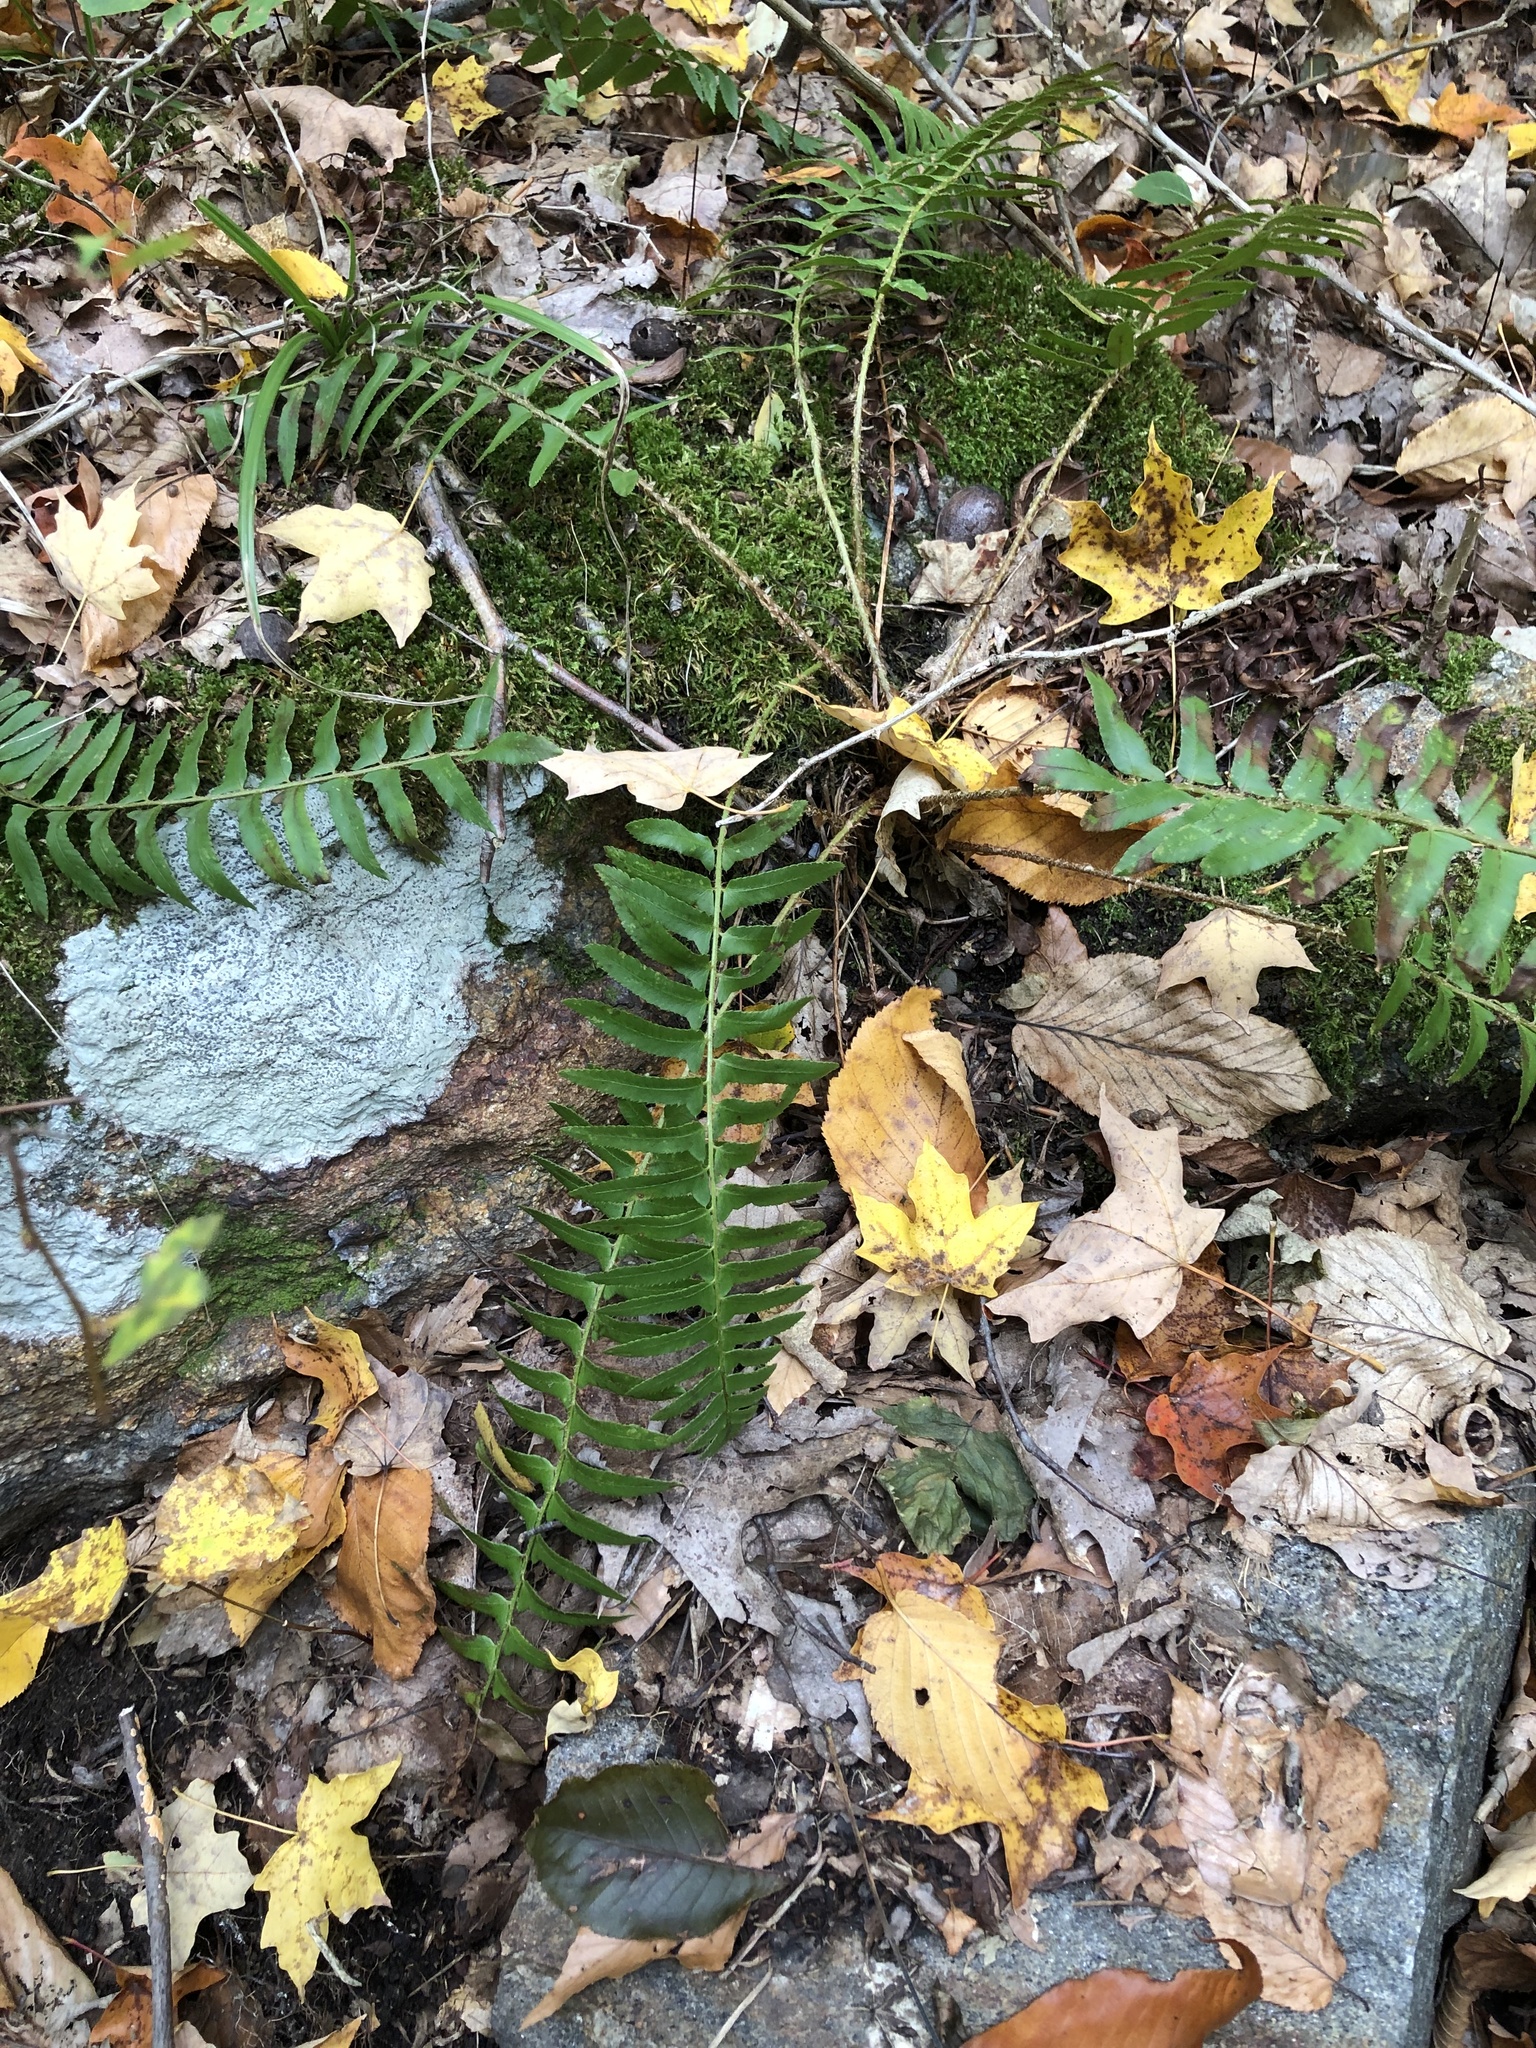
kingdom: Plantae
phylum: Tracheophyta
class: Polypodiopsida
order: Polypodiales
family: Dryopteridaceae
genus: Polystichum
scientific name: Polystichum acrostichoides
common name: Christmas fern
